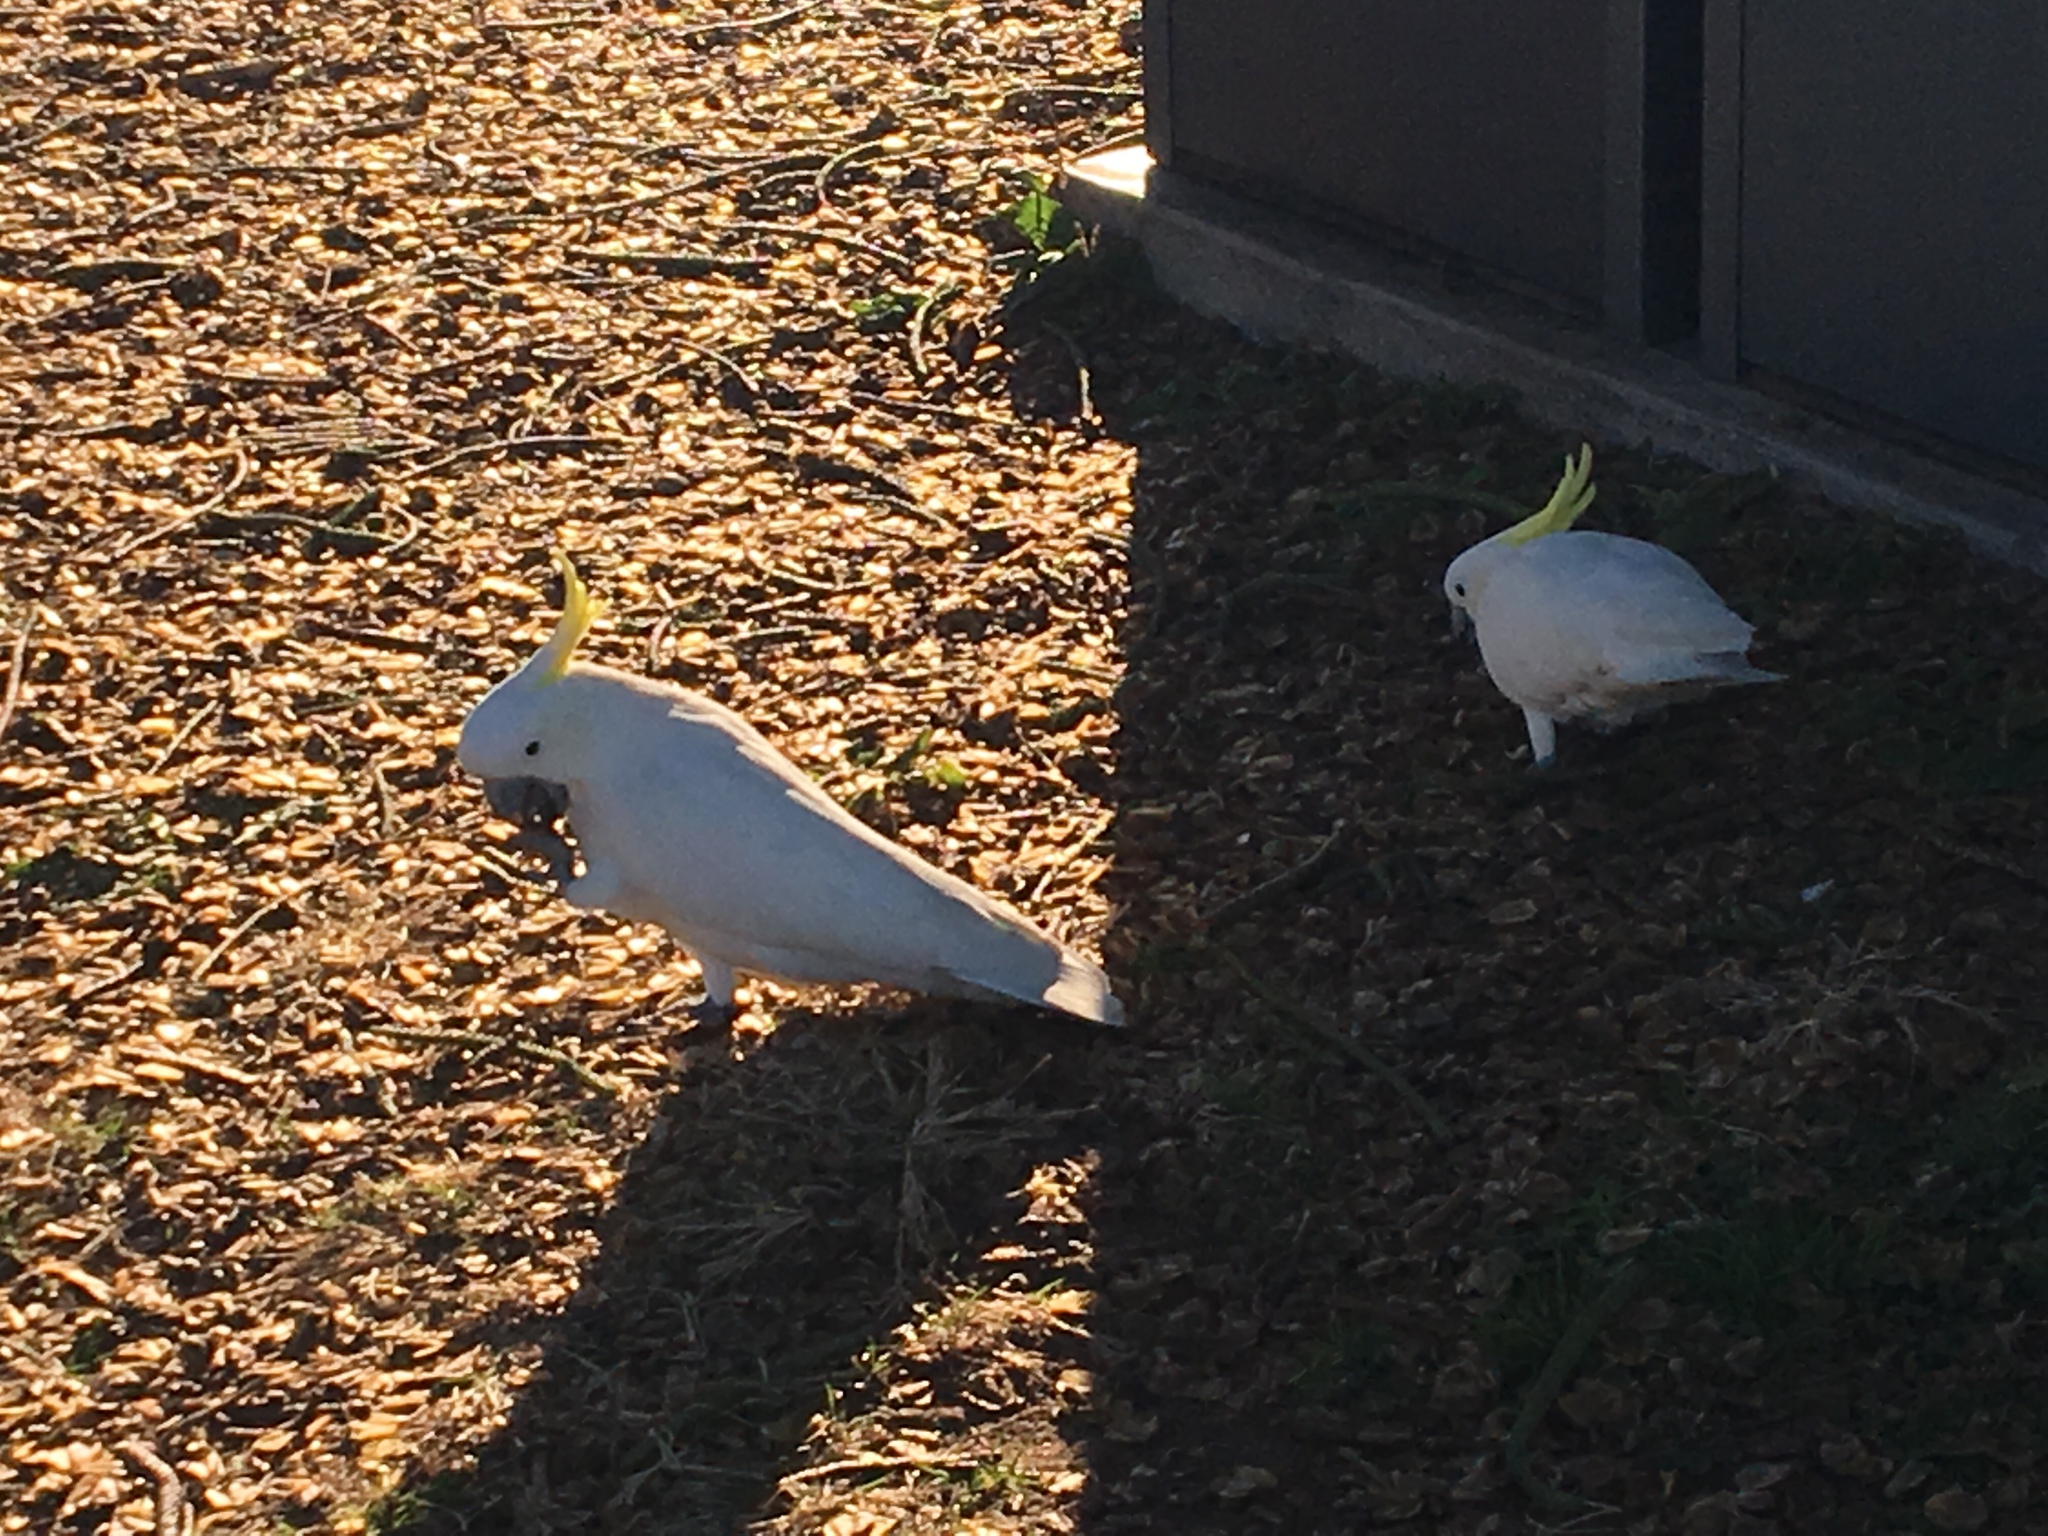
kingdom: Animalia
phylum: Chordata
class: Aves
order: Psittaciformes
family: Psittacidae
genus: Cacatua
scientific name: Cacatua galerita
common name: Sulphur-crested cockatoo
